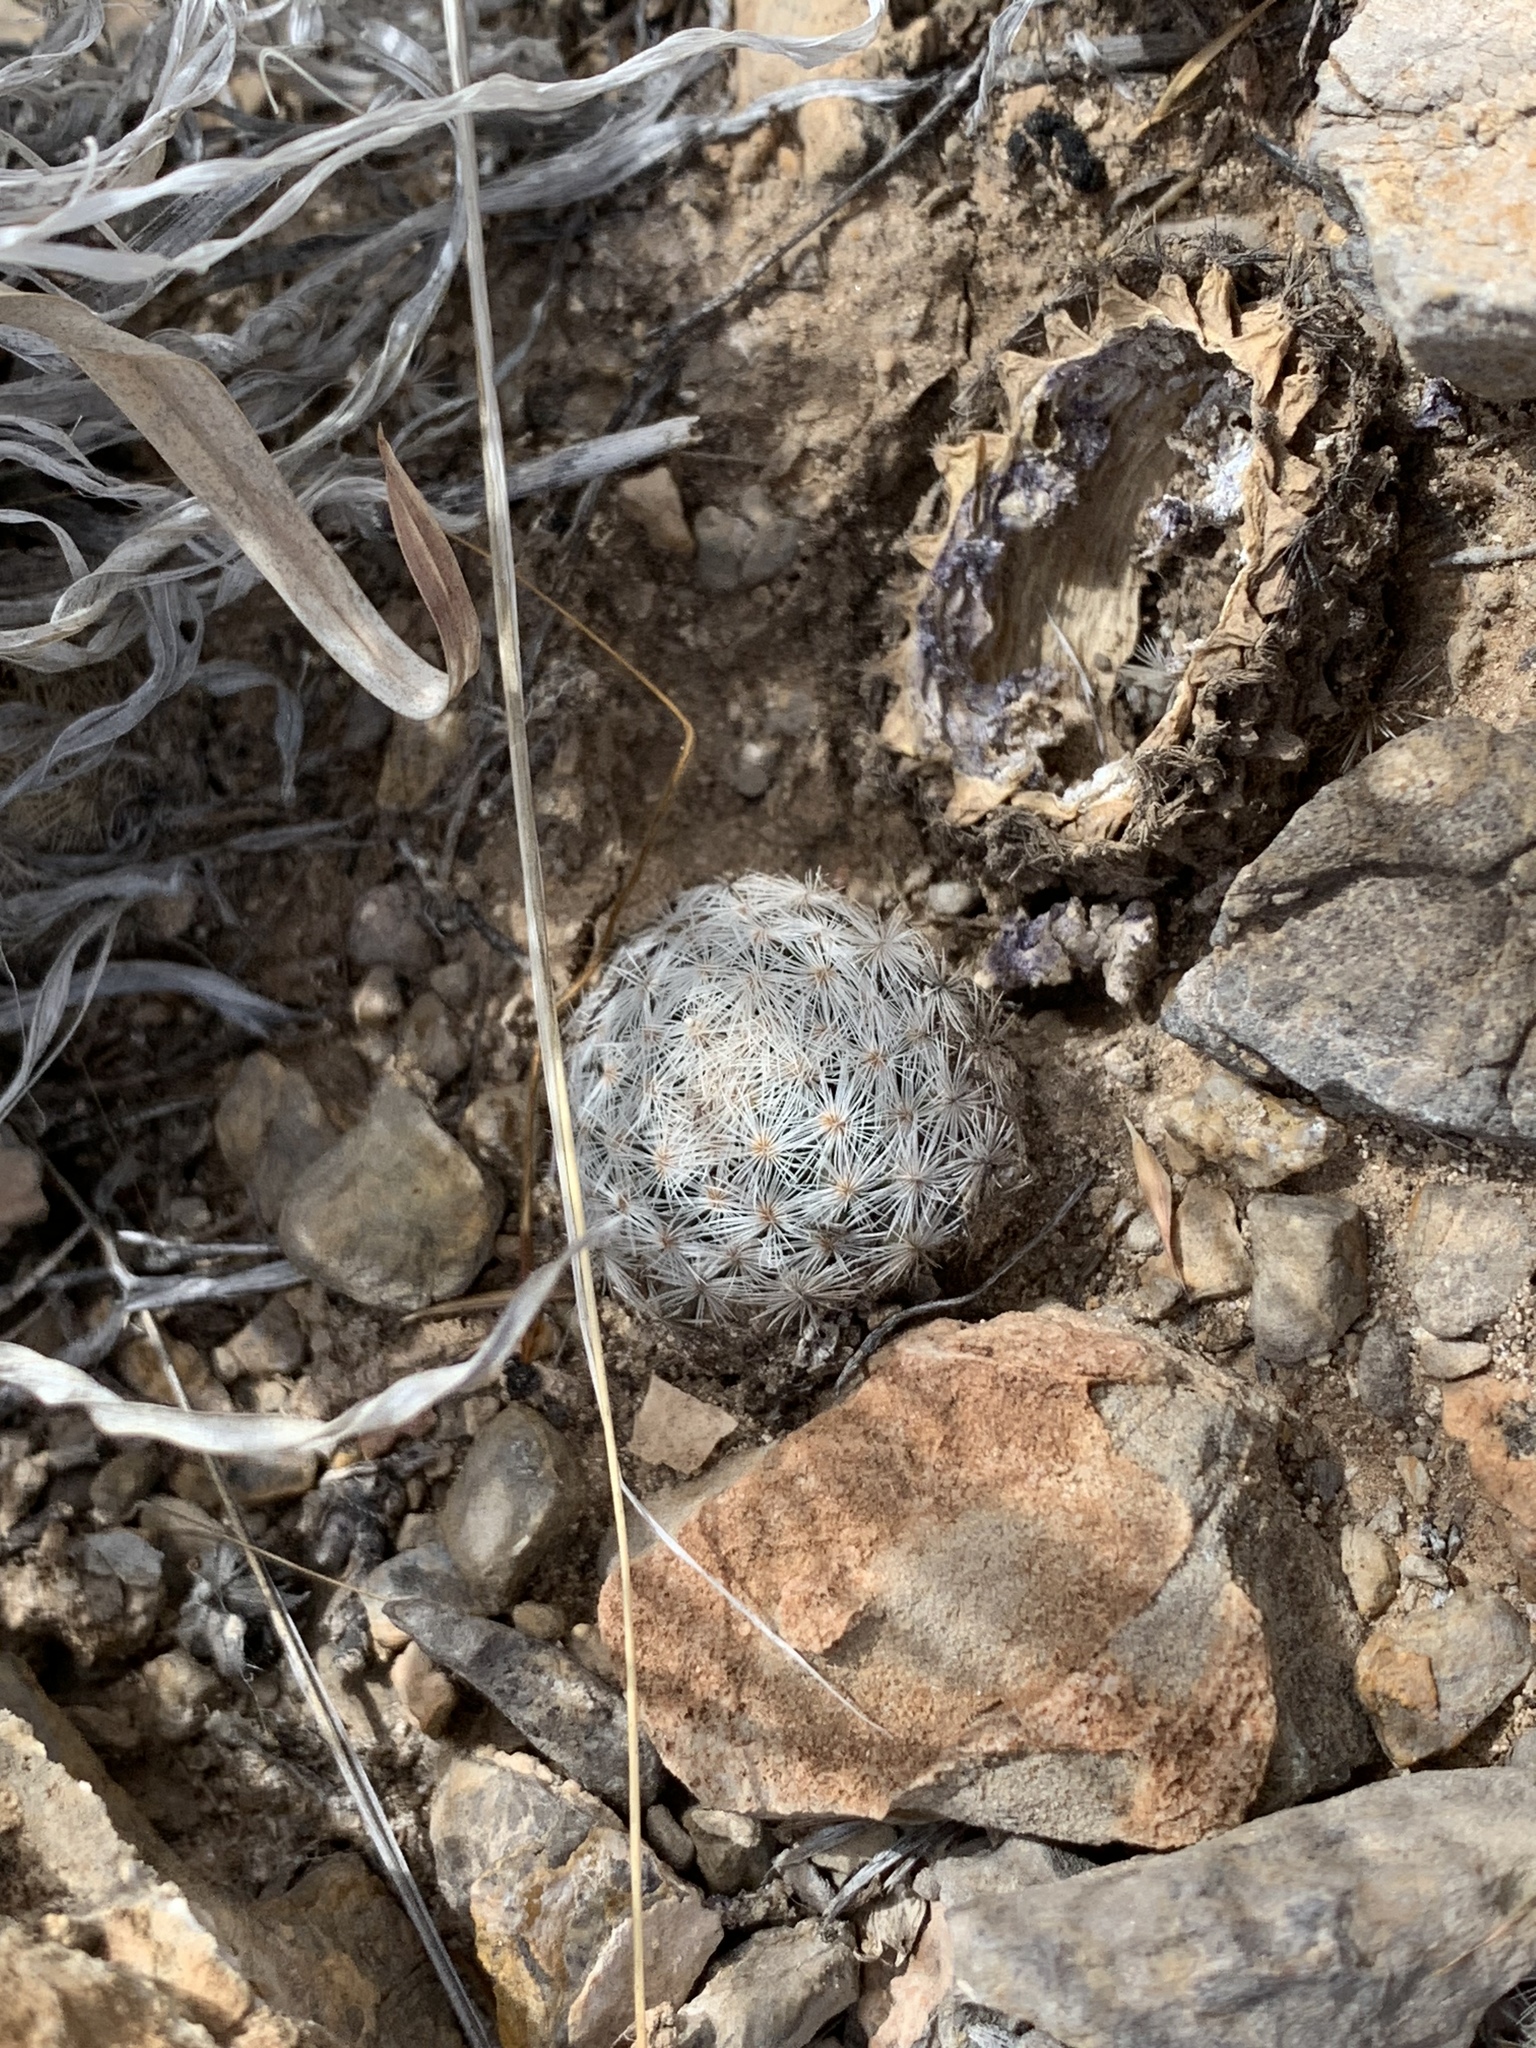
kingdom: Plantae
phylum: Tracheophyta
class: Magnoliopsida
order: Caryophyllales
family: Cactaceae
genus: Mammillaria
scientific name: Mammillaria lasiacantha
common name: Lace-spine nipple cactus
